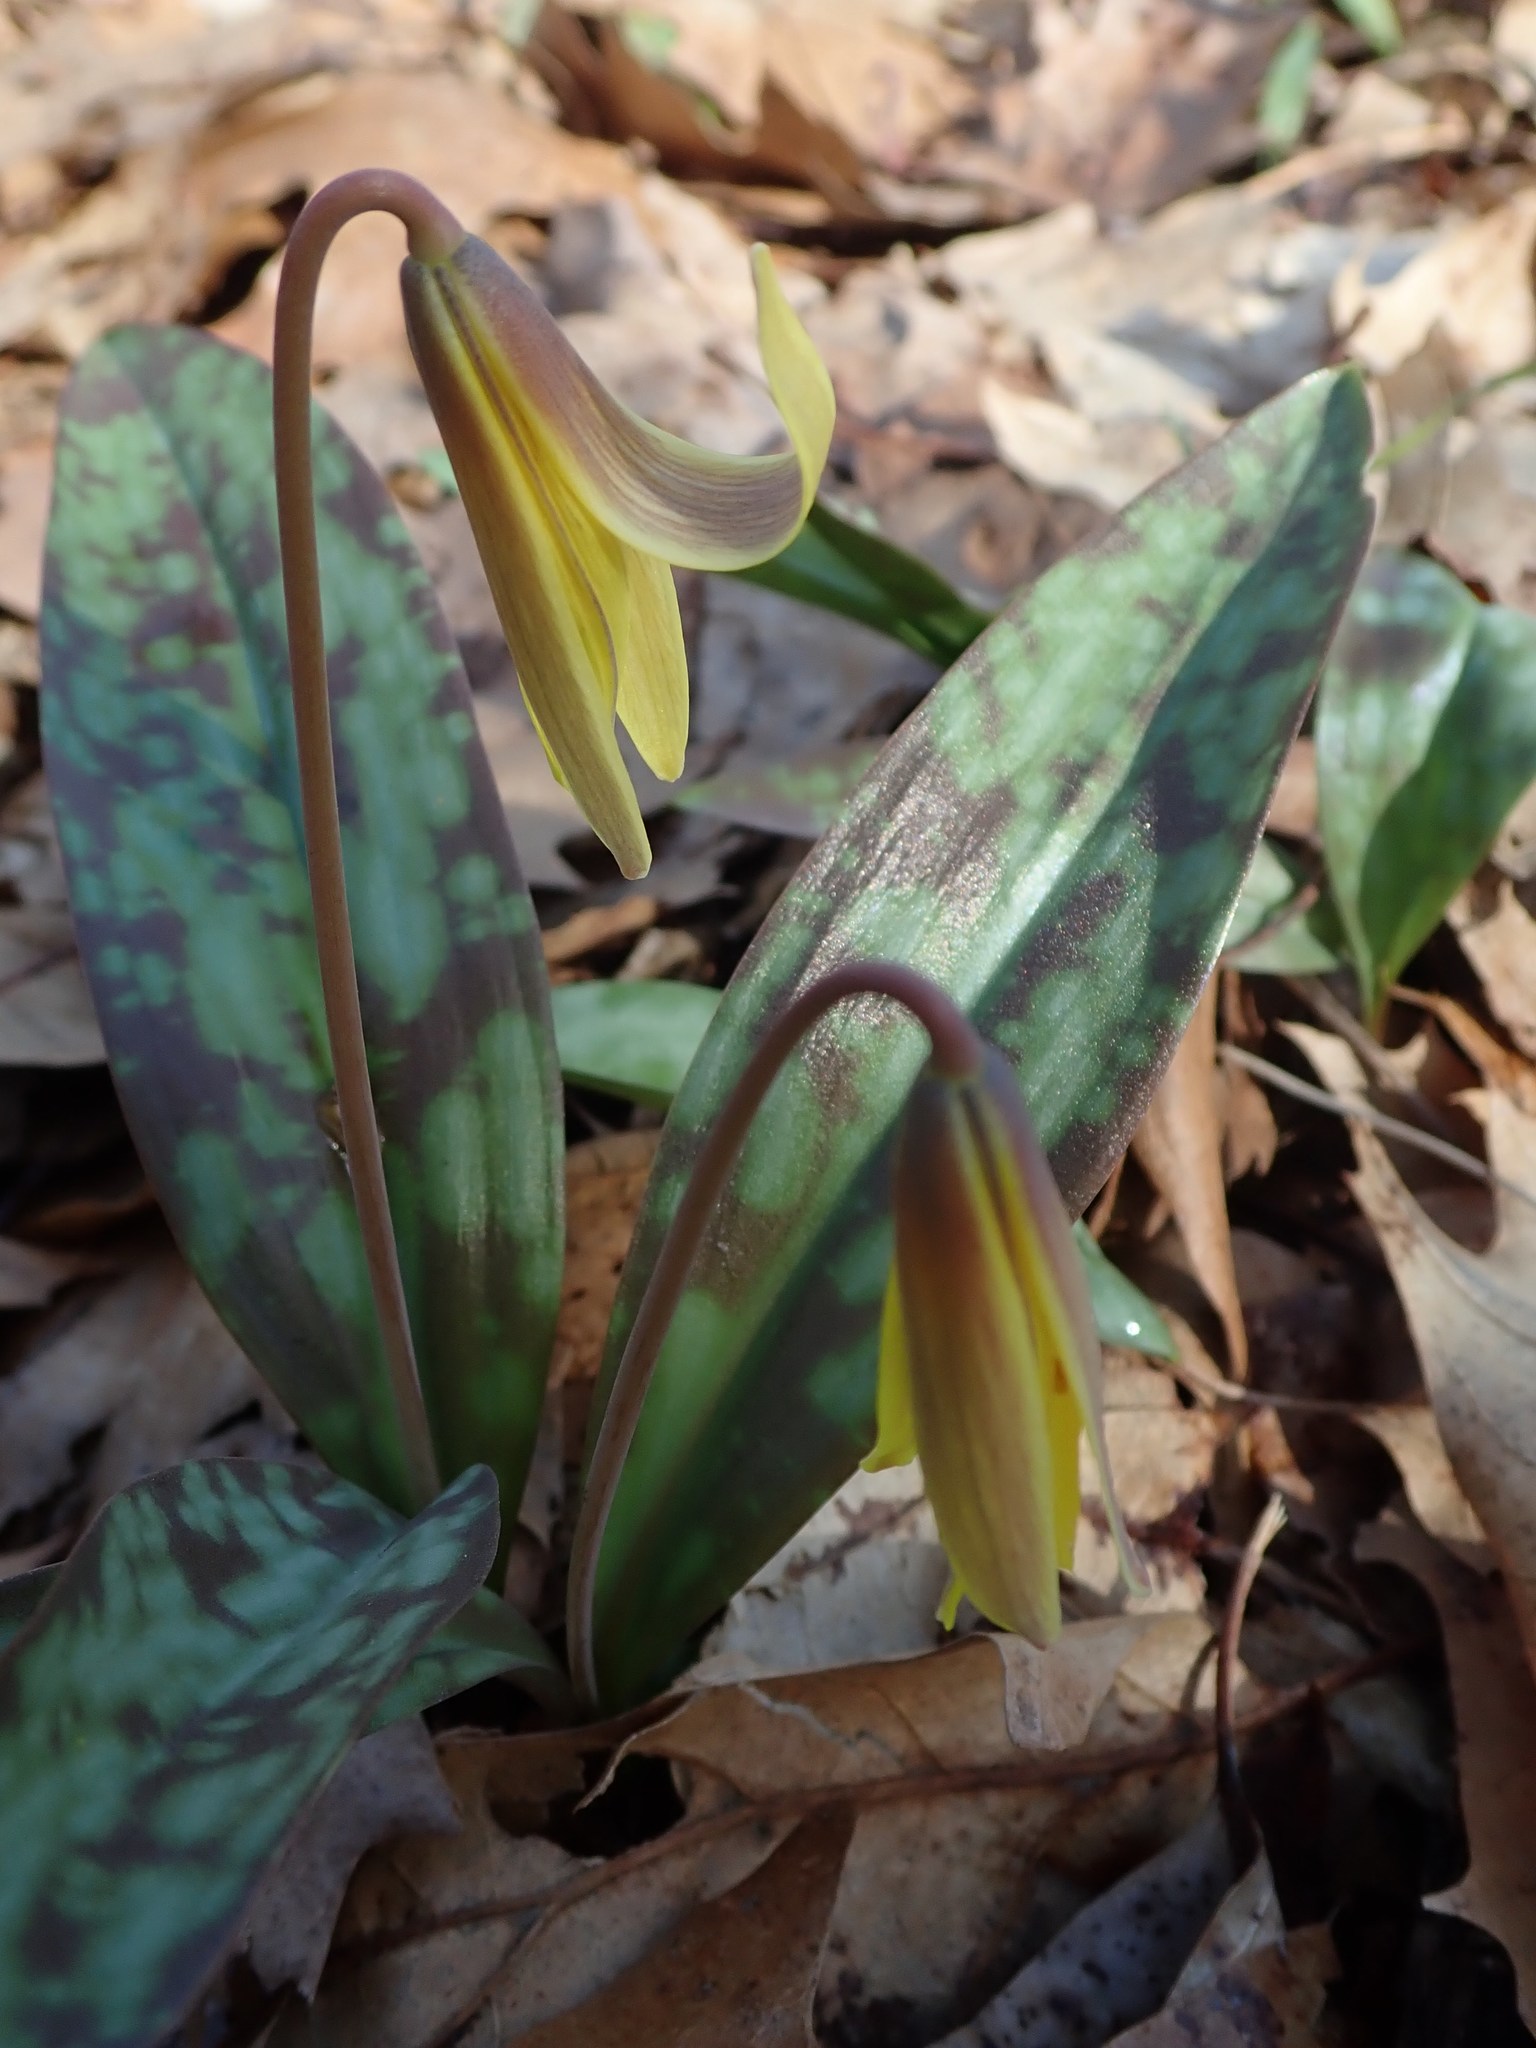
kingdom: Plantae
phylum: Tracheophyta
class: Liliopsida
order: Liliales
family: Liliaceae
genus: Erythronium
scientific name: Erythronium americanum
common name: Yellow adder's-tongue
